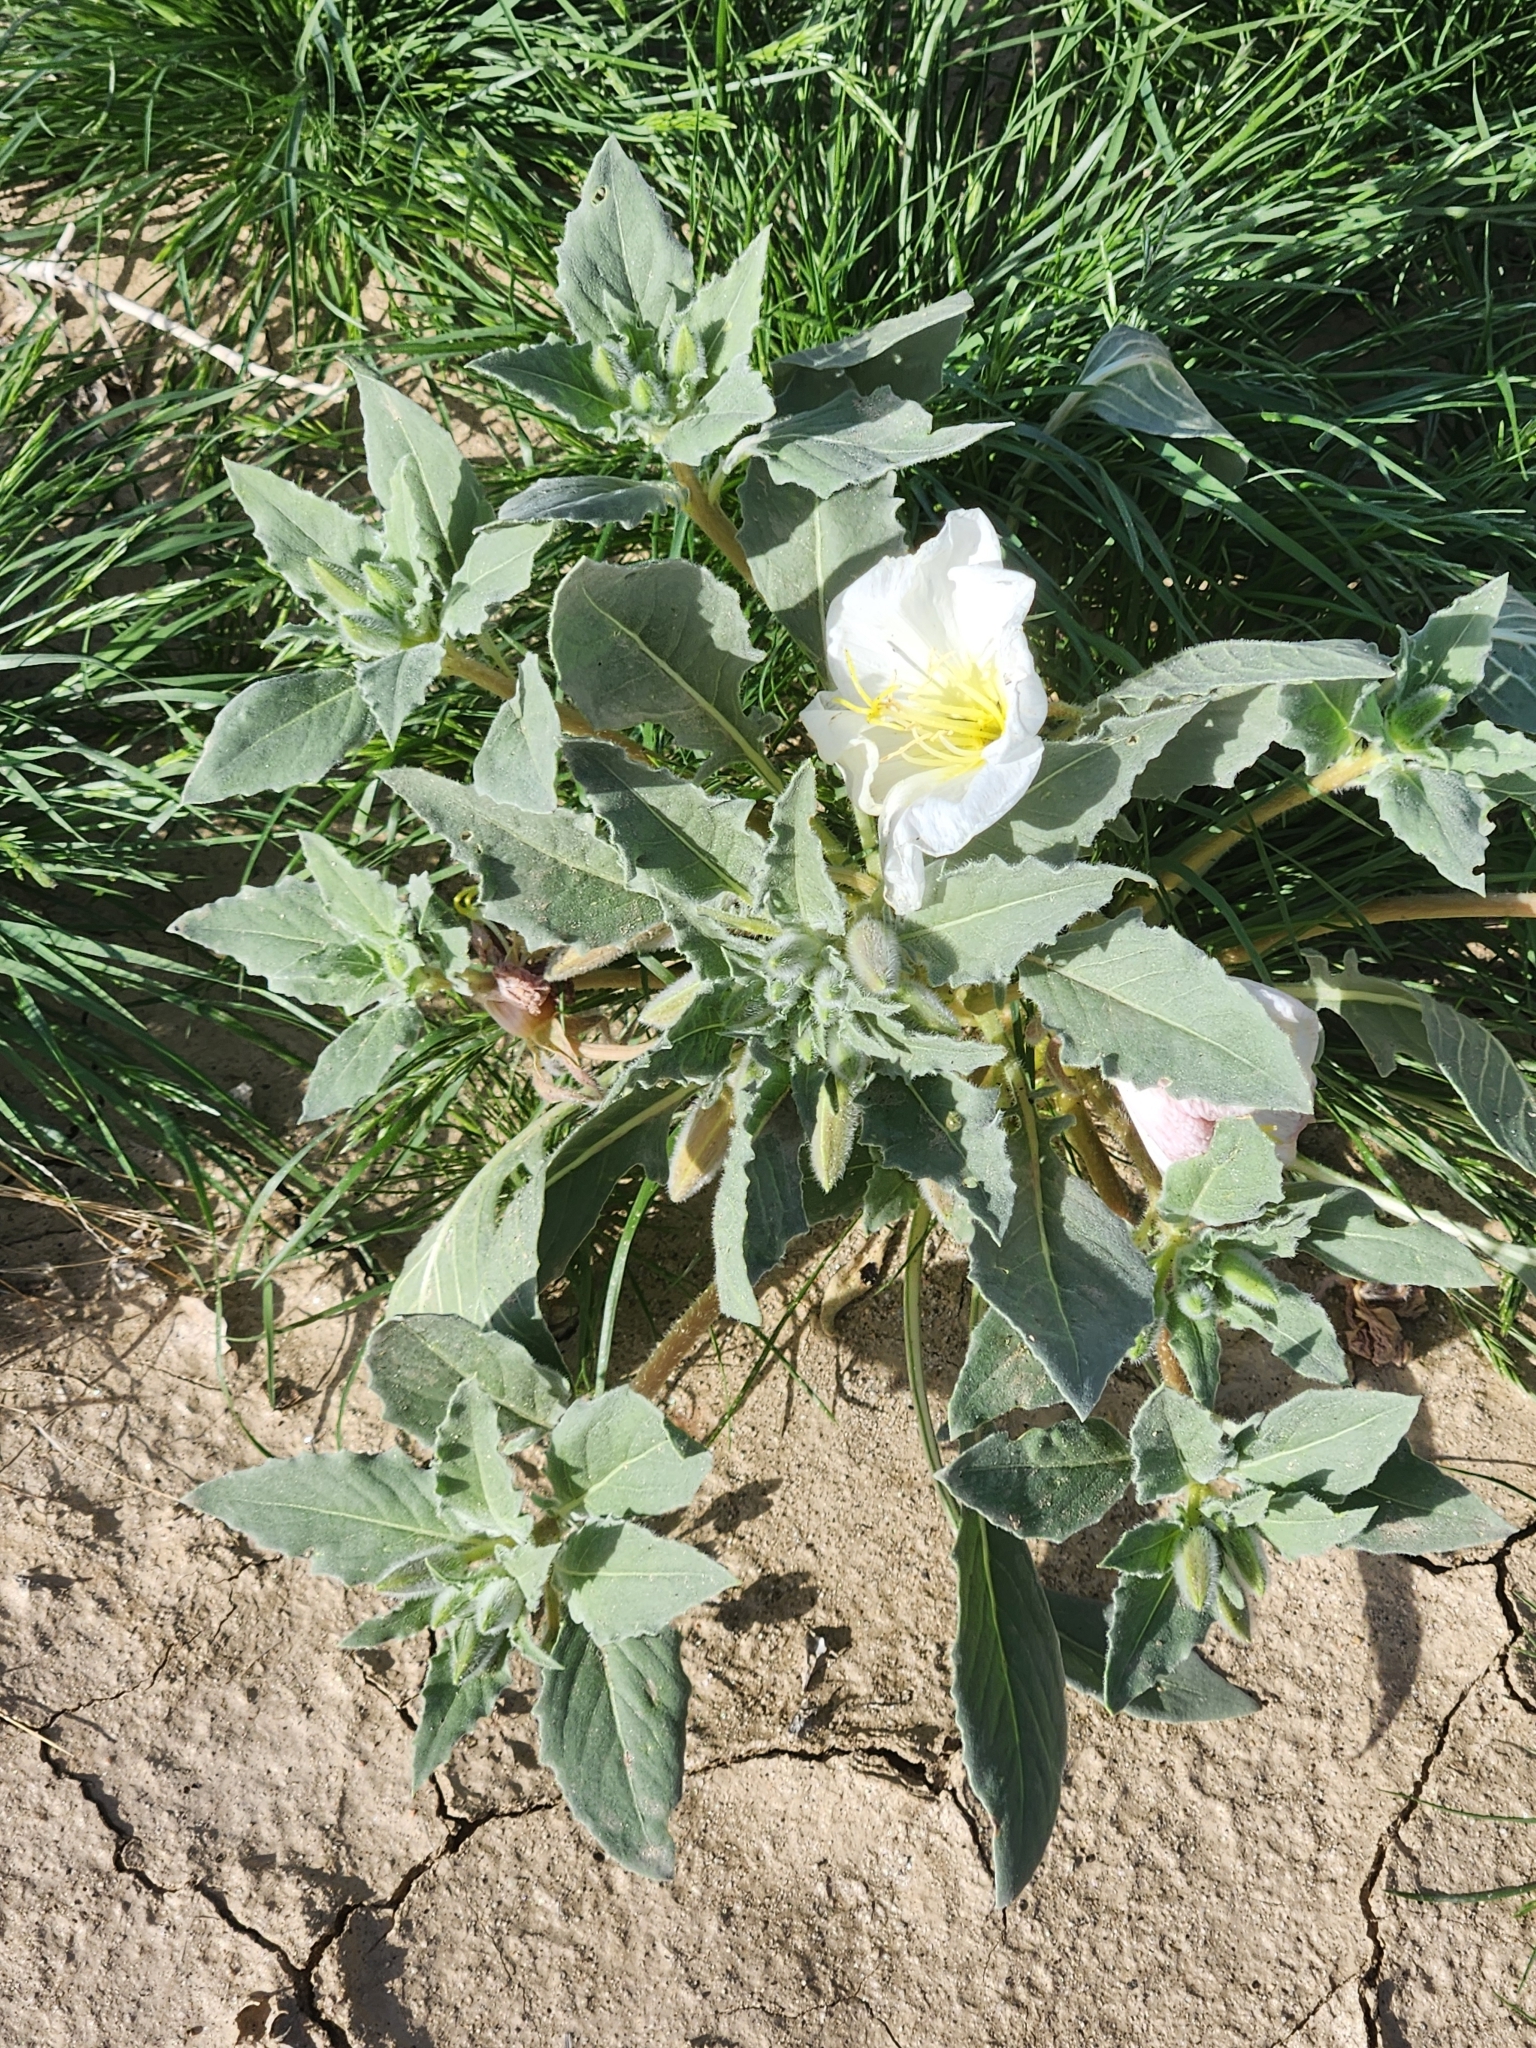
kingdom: Plantae
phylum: Tracheophyta
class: Magnoliopsida
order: Myrtales
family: Onagraceae
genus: Oenothera
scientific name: Oenothera deltoides
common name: Basket evening-primrose
